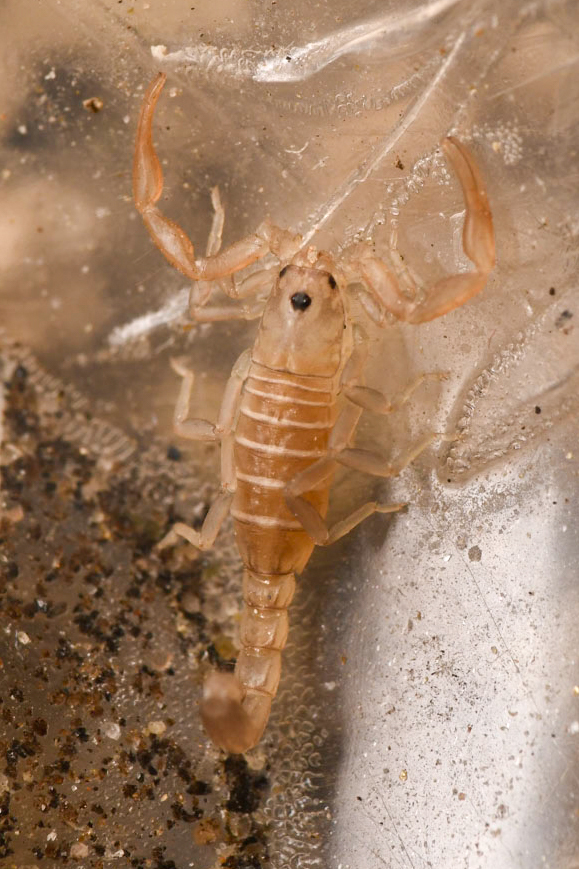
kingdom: Animalia
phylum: Arthropoda
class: Arachnida
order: Scorpiones
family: Vaejovidae
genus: Serradigitus
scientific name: Serradigitus joshuaensis
